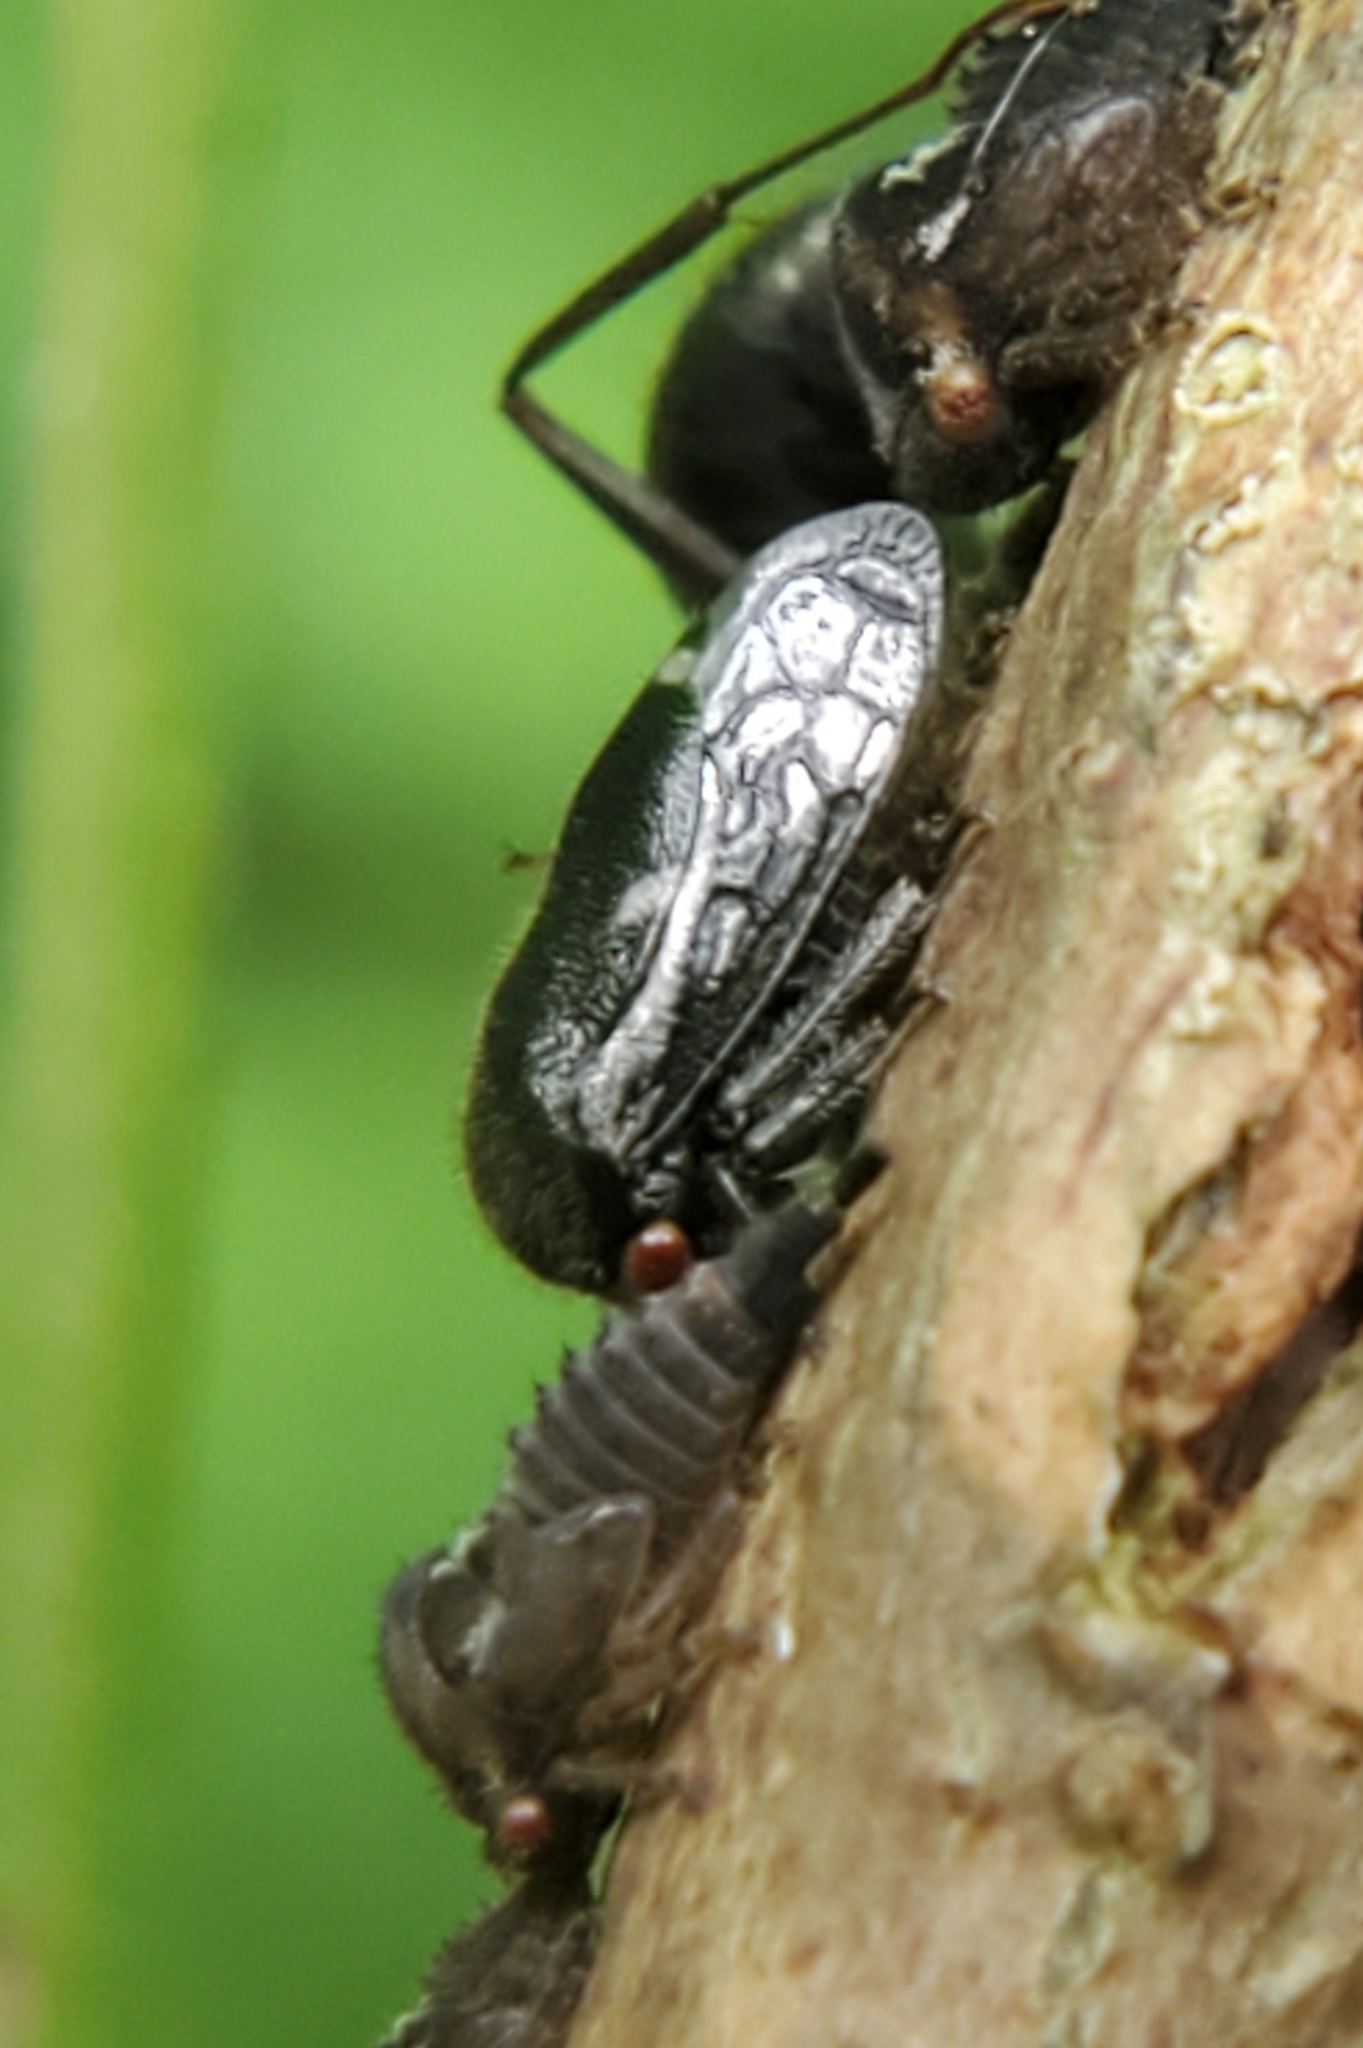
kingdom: Animalia
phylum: Arthropoda
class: Insecta
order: Hemiptera
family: Membracidae
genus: Vanduzea
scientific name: Vanduzea arquata
